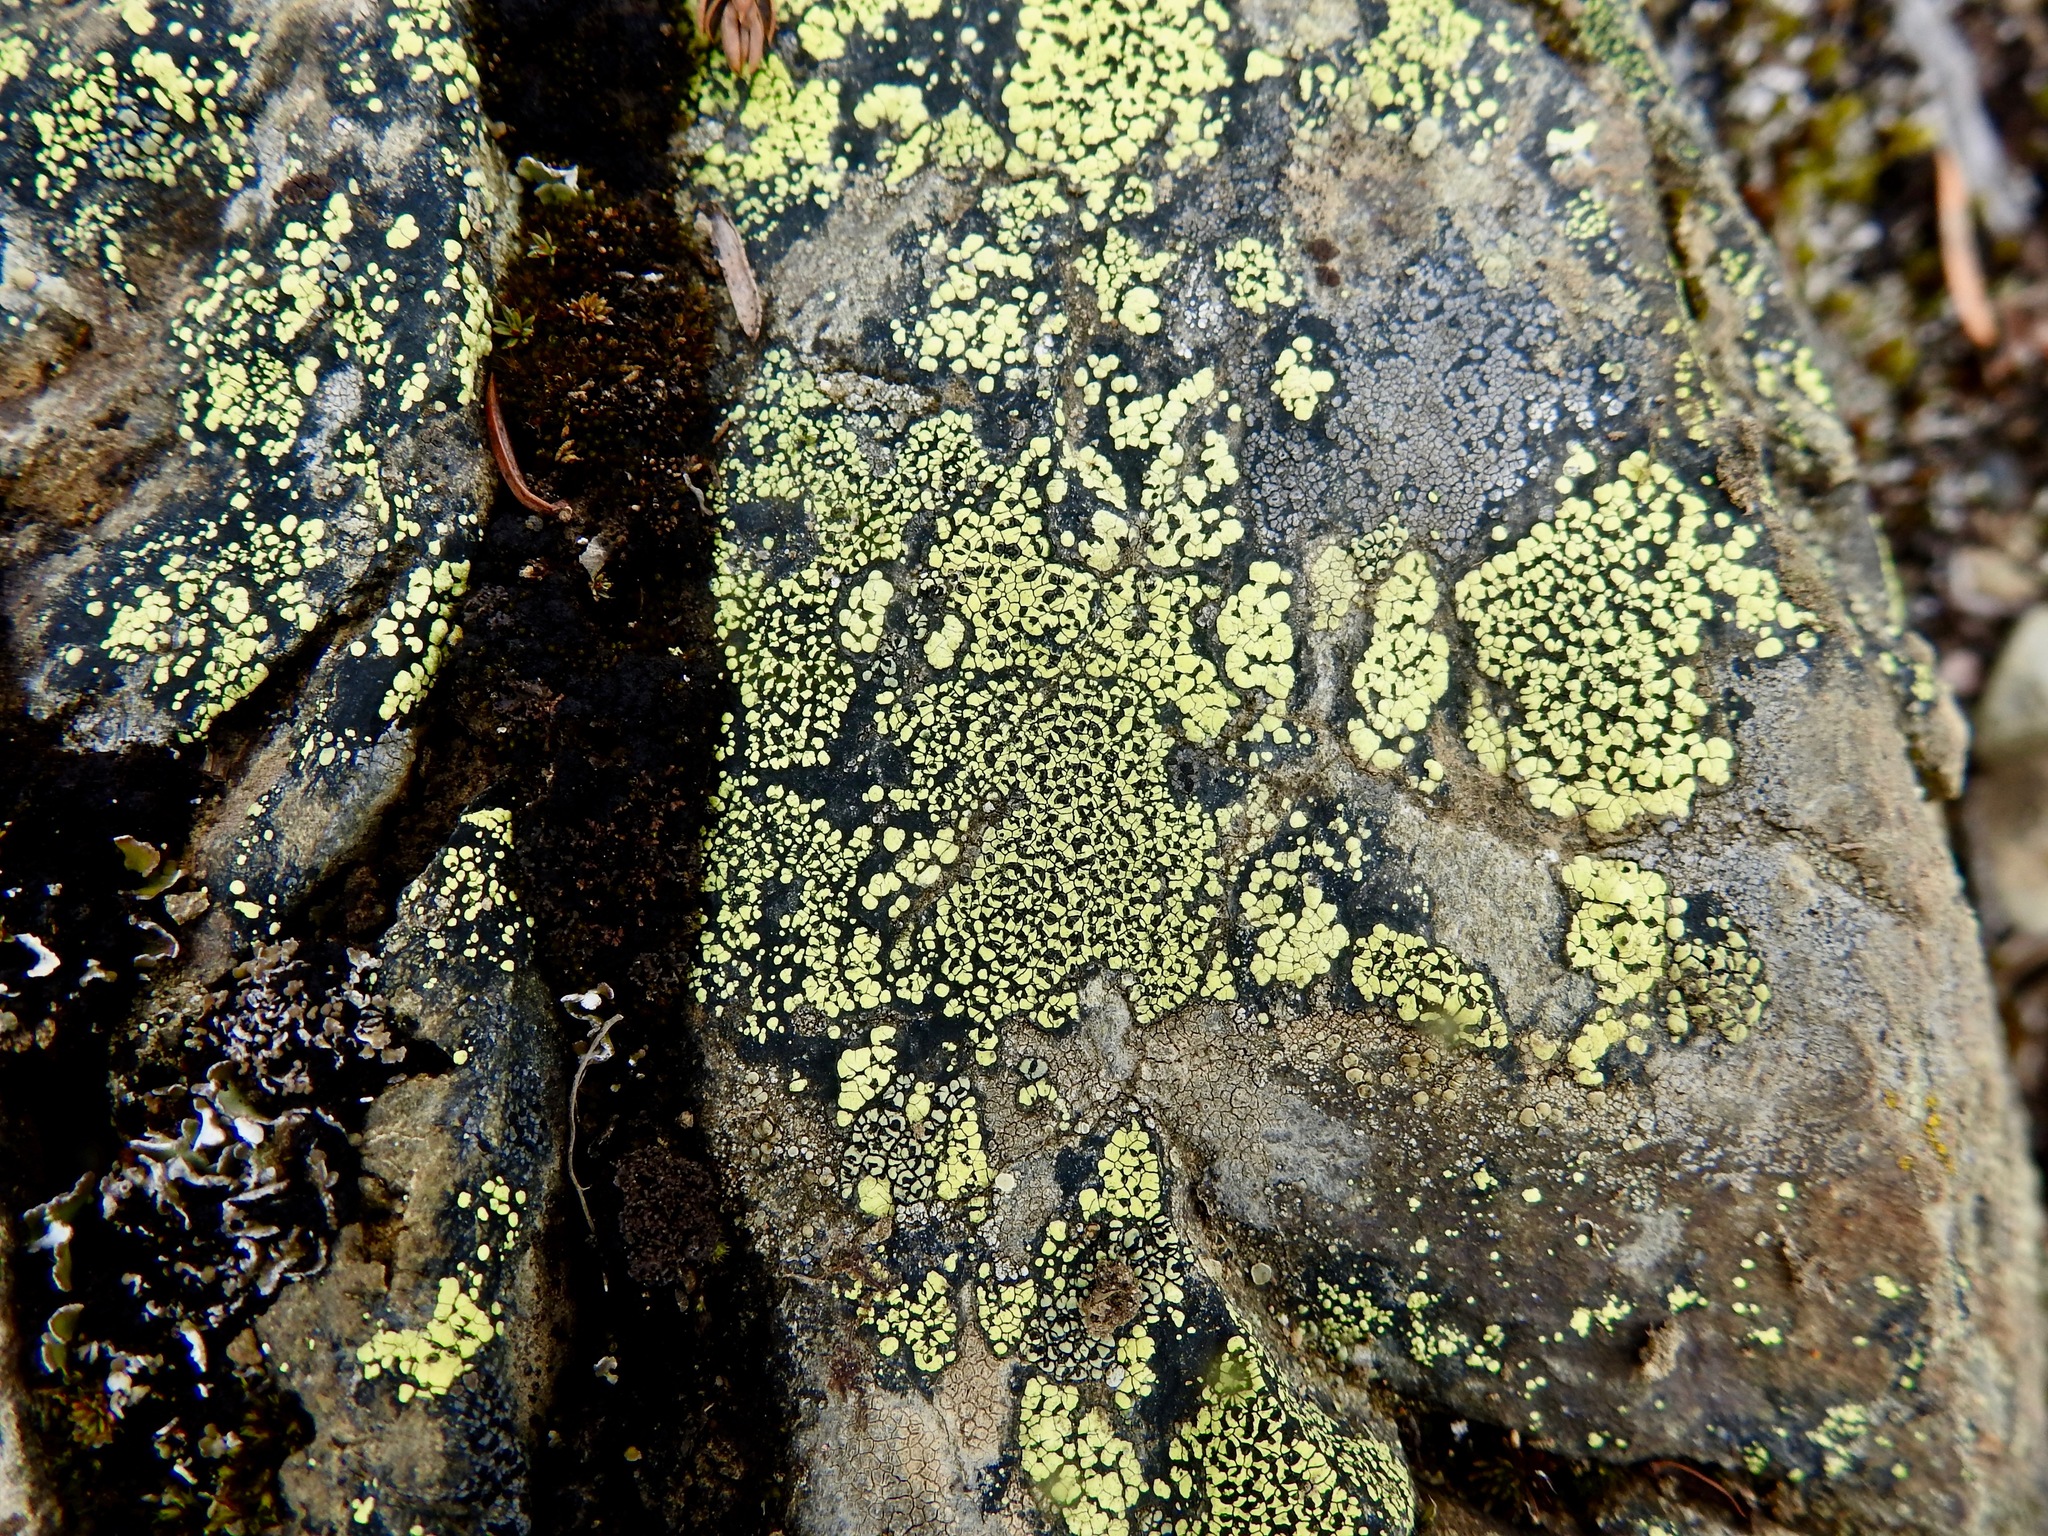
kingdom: Fungi
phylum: Ascomycota
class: Lecanoromycetes
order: Rhizocarpales
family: Rhizocarpaceae
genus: Rhizocarpon
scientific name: Rhizocarpon geographicum
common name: Yellow map lichen
